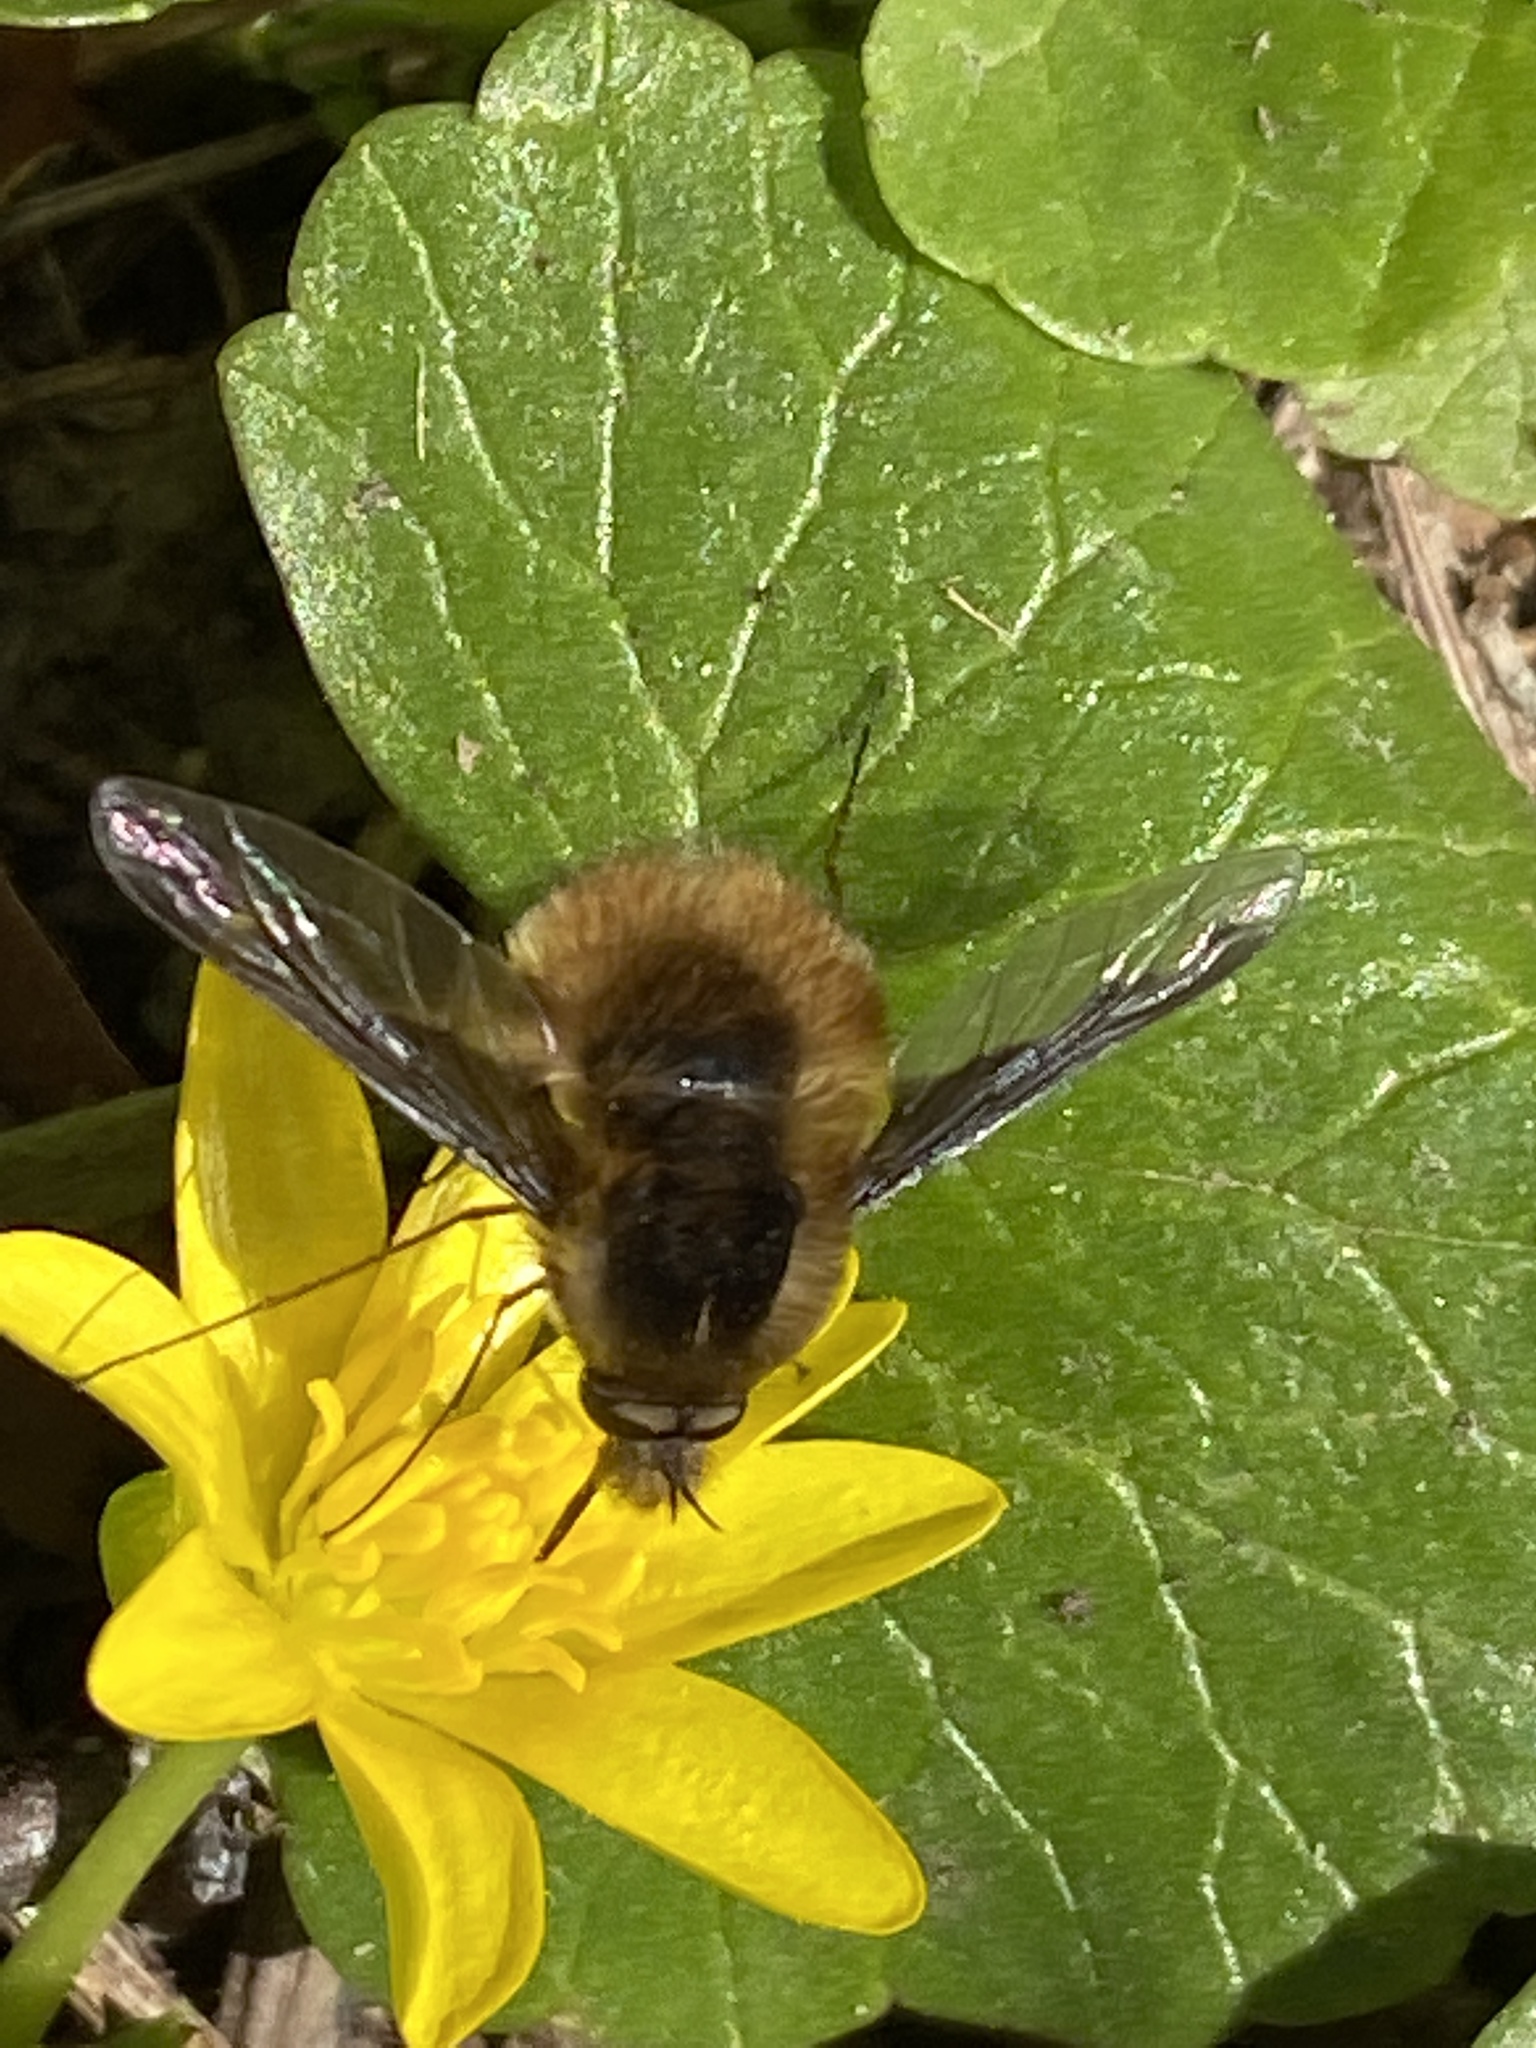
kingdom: Animalia
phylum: Arthropoda
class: Insecta
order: Diptera
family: Bombyliidae
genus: Bombylius
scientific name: Bombylius major
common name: Bee fly
